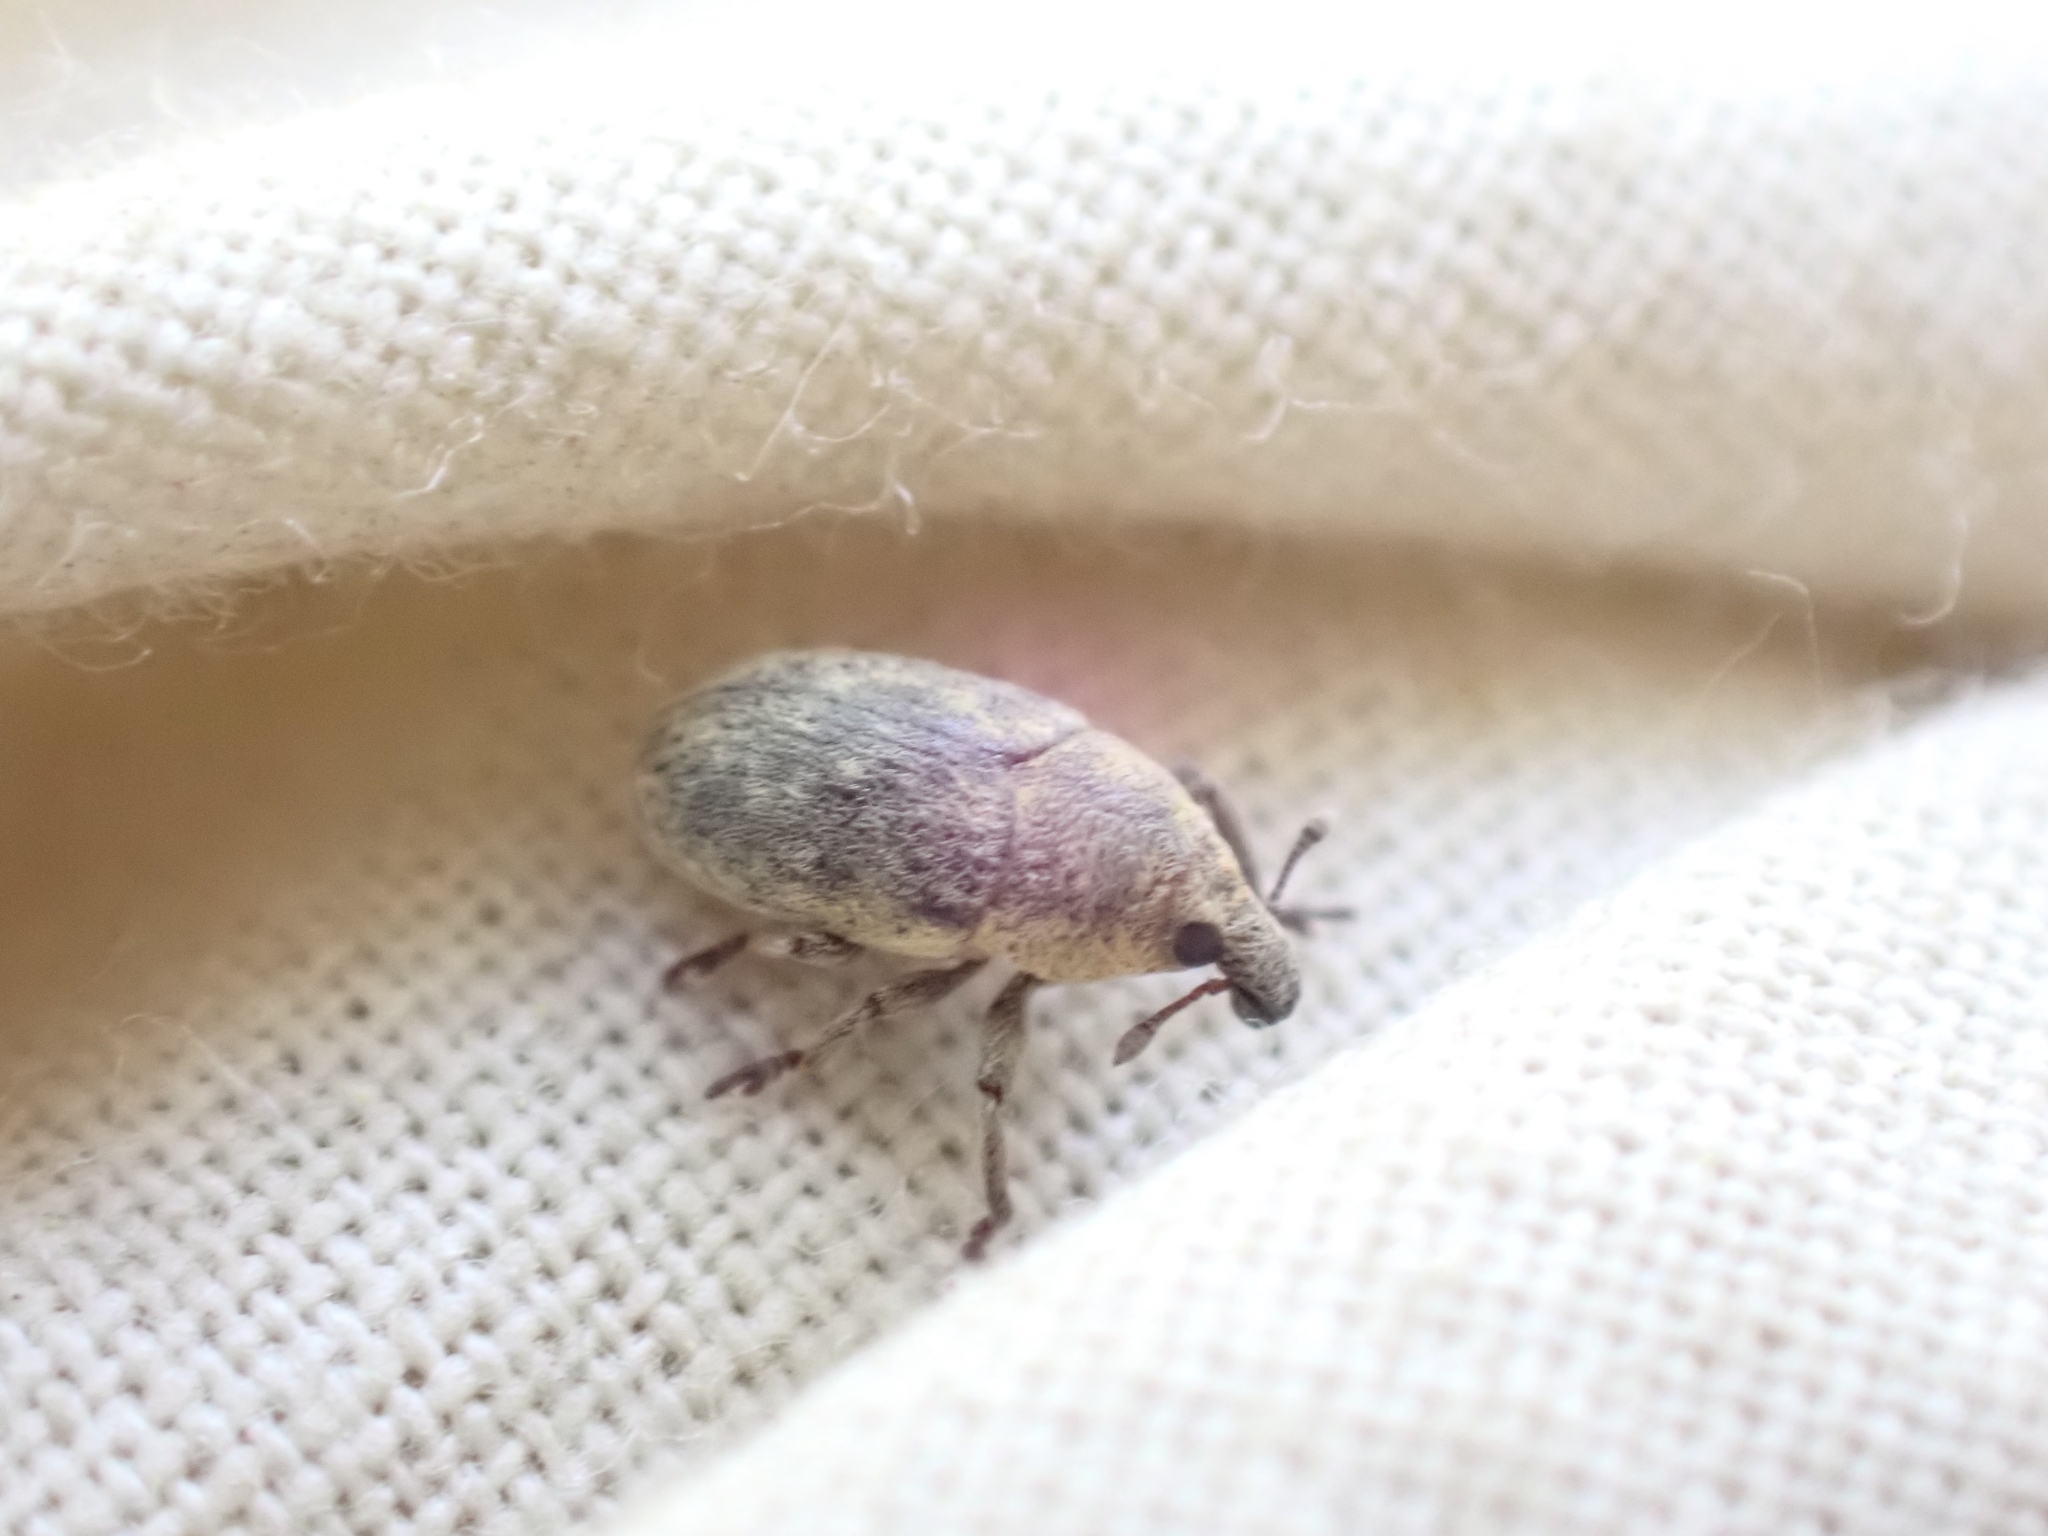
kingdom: Animalia
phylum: Arthropoda
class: Insecta
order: Coleoptera
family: Curculionidae
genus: Larinus
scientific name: Larinus minutus
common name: Weevil
